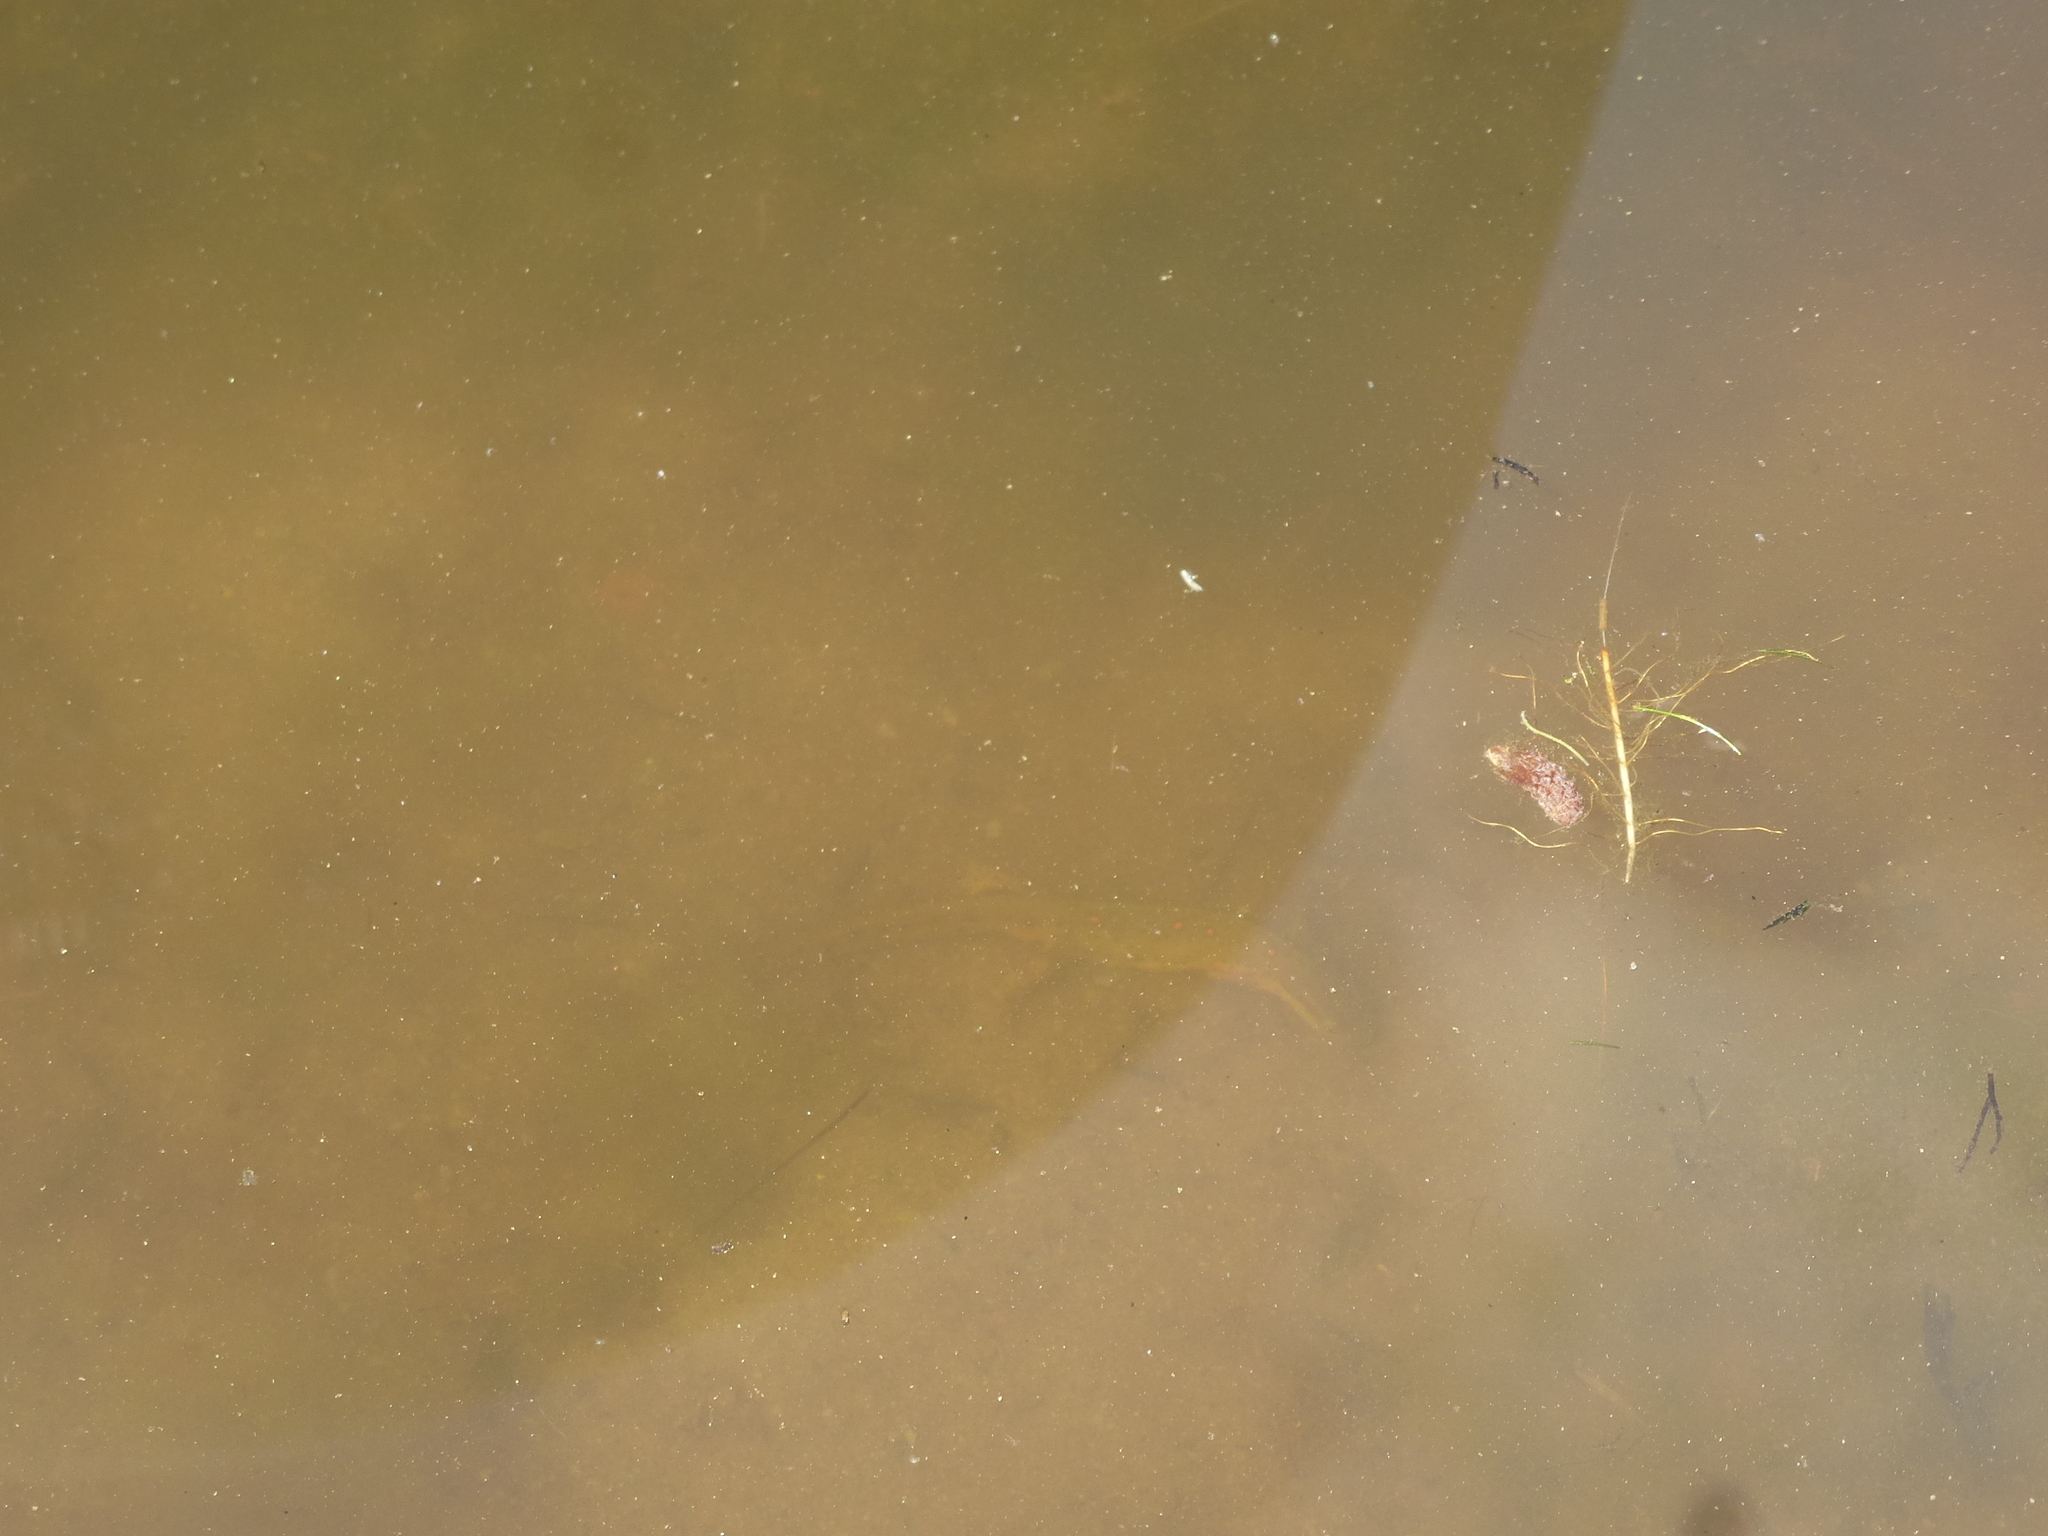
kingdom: Animalia
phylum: Chordata
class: Amphibia
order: Caudata
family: Salamandridae
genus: Notophthalmus
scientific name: Notophthalmus viridescens
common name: Eastern newt
